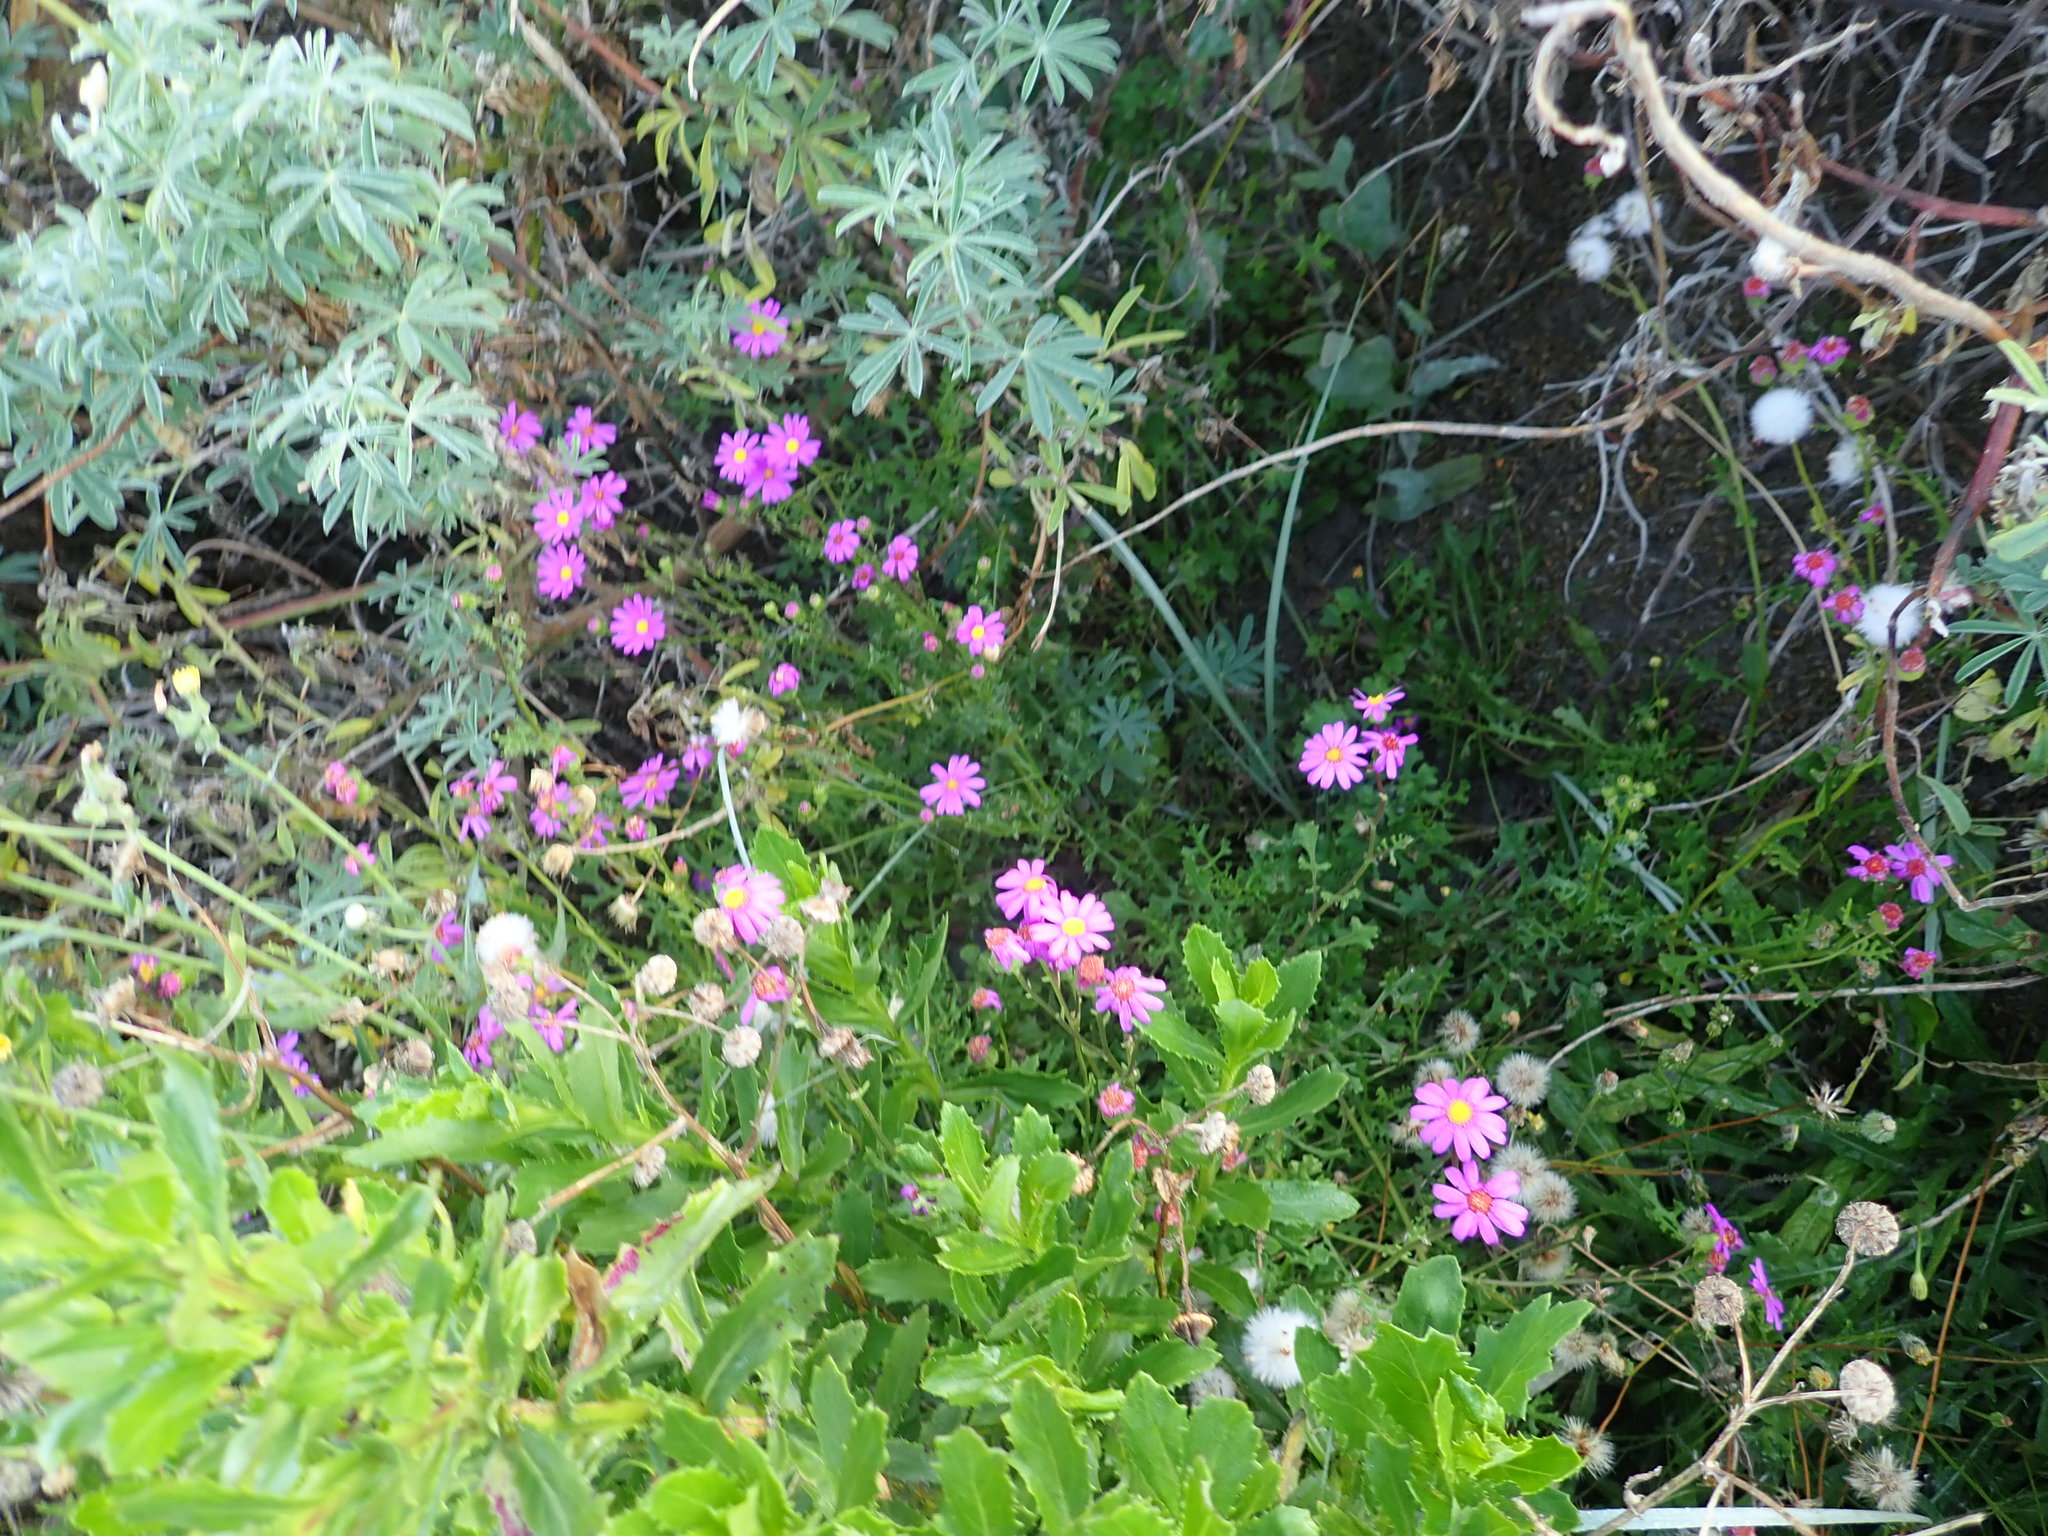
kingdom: Plantae
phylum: Tracheophyta
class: Magnoliopsida
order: Fabales
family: Fabaceae
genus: Lupinus
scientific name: Lupinus arboreus
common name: Yellow bush lupine
